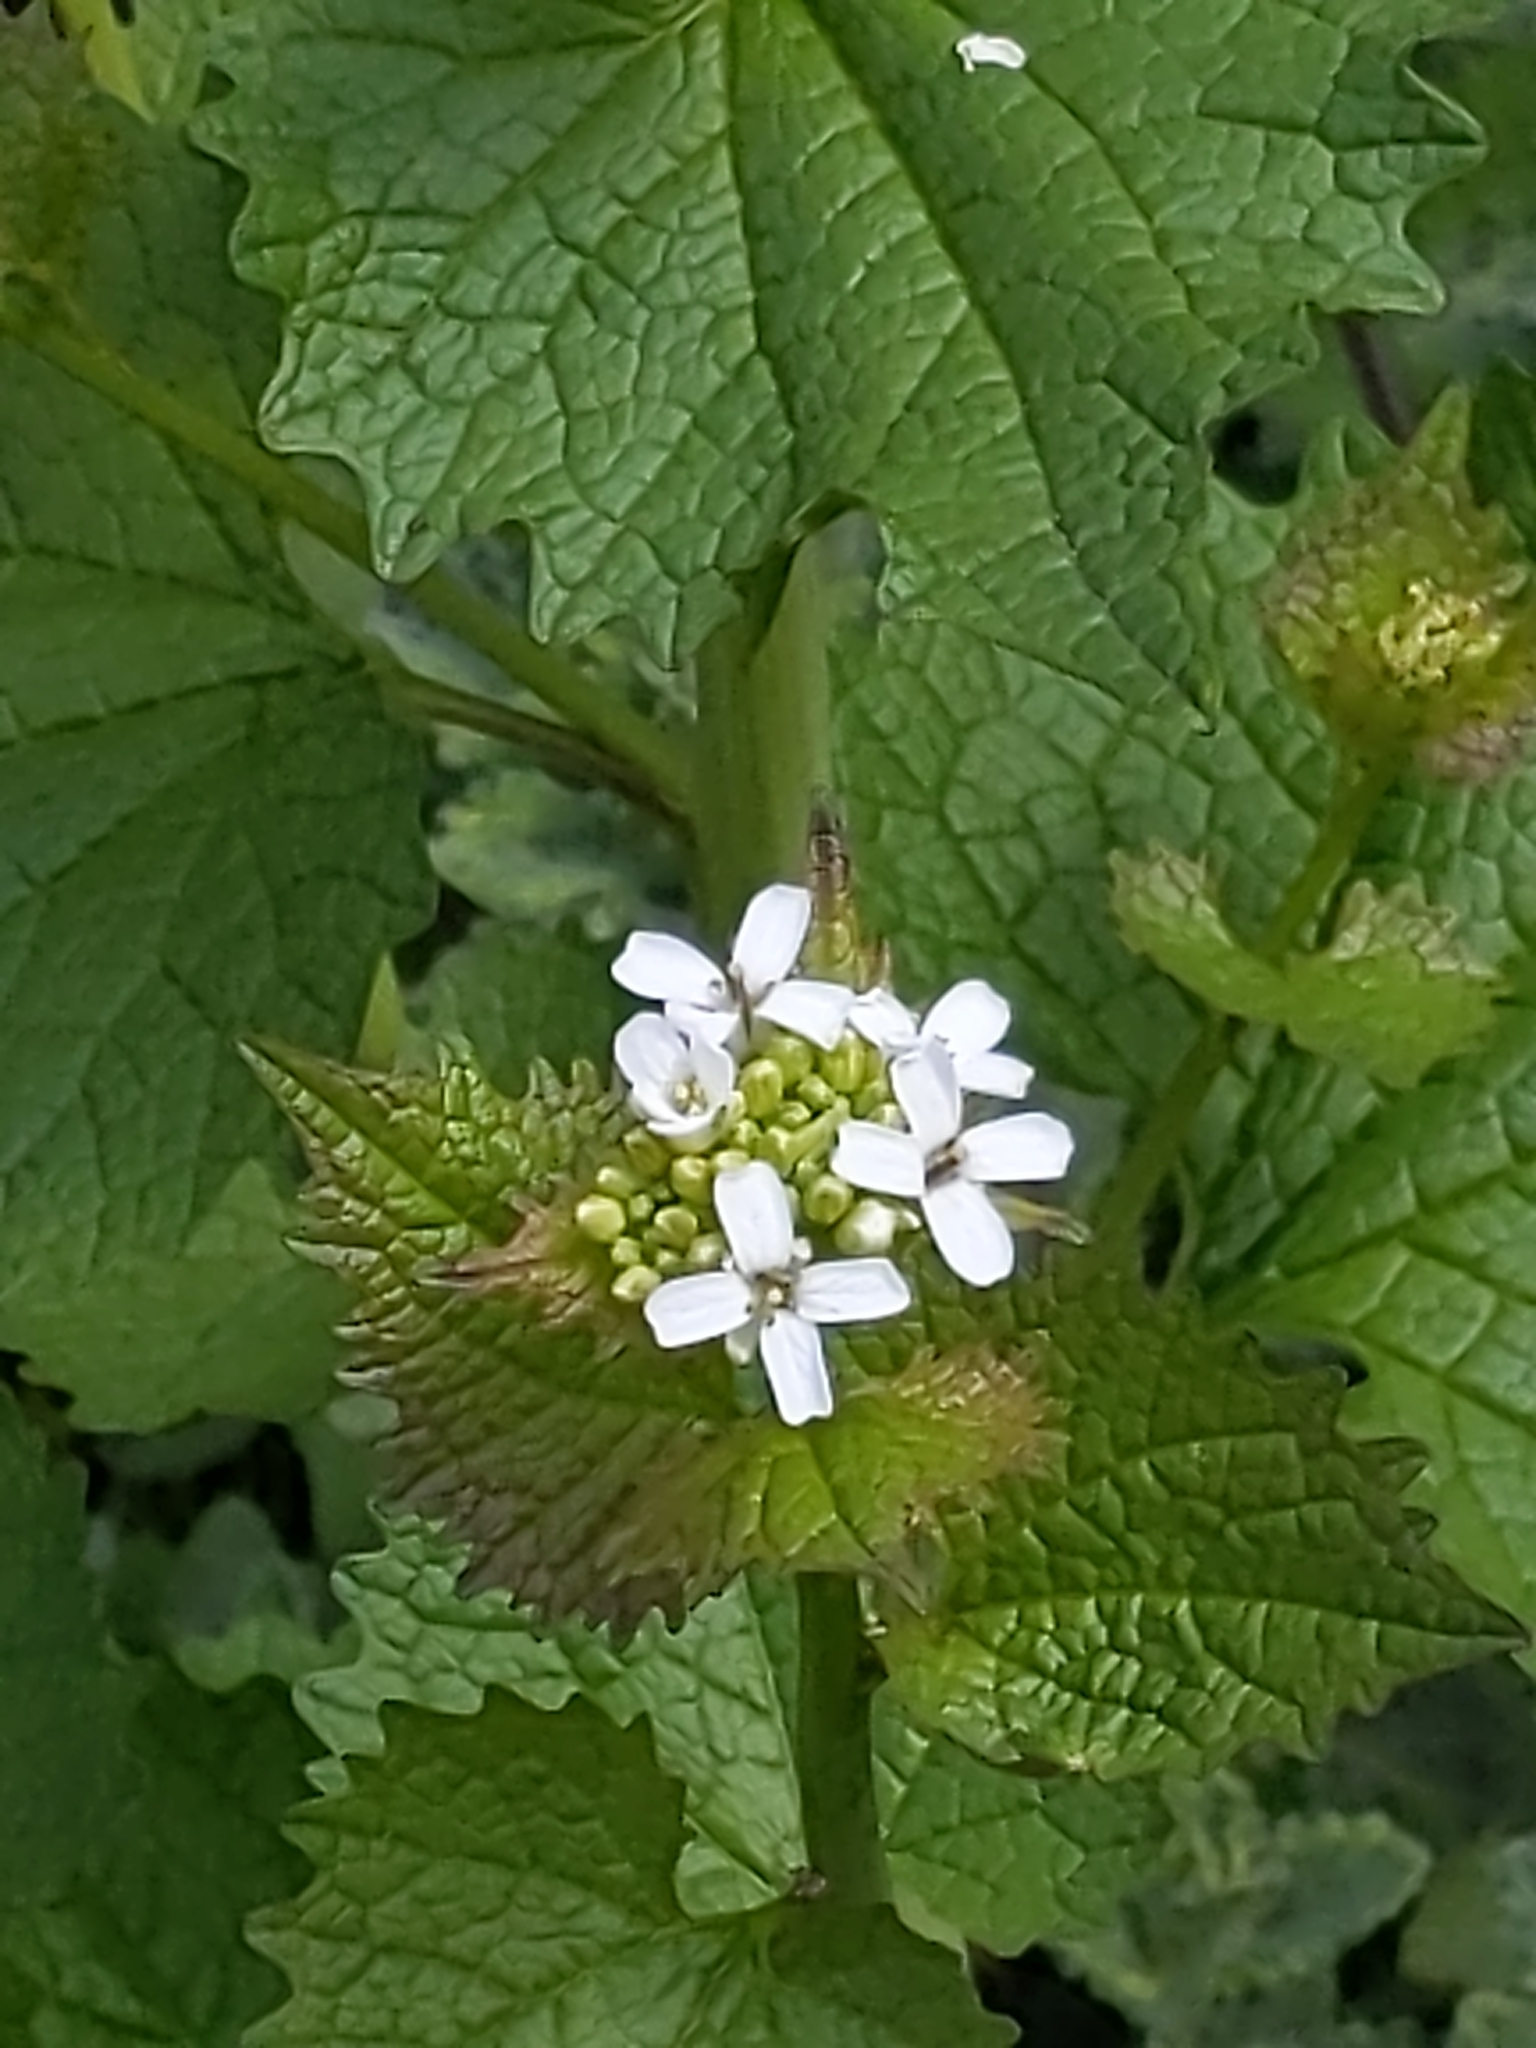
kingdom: Plantae
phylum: Tracheophyta
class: Magnoliopsida
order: Brassicales
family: Brassicaceae
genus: Alliaria
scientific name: Alliaria petiolata
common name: Garlic mustard
